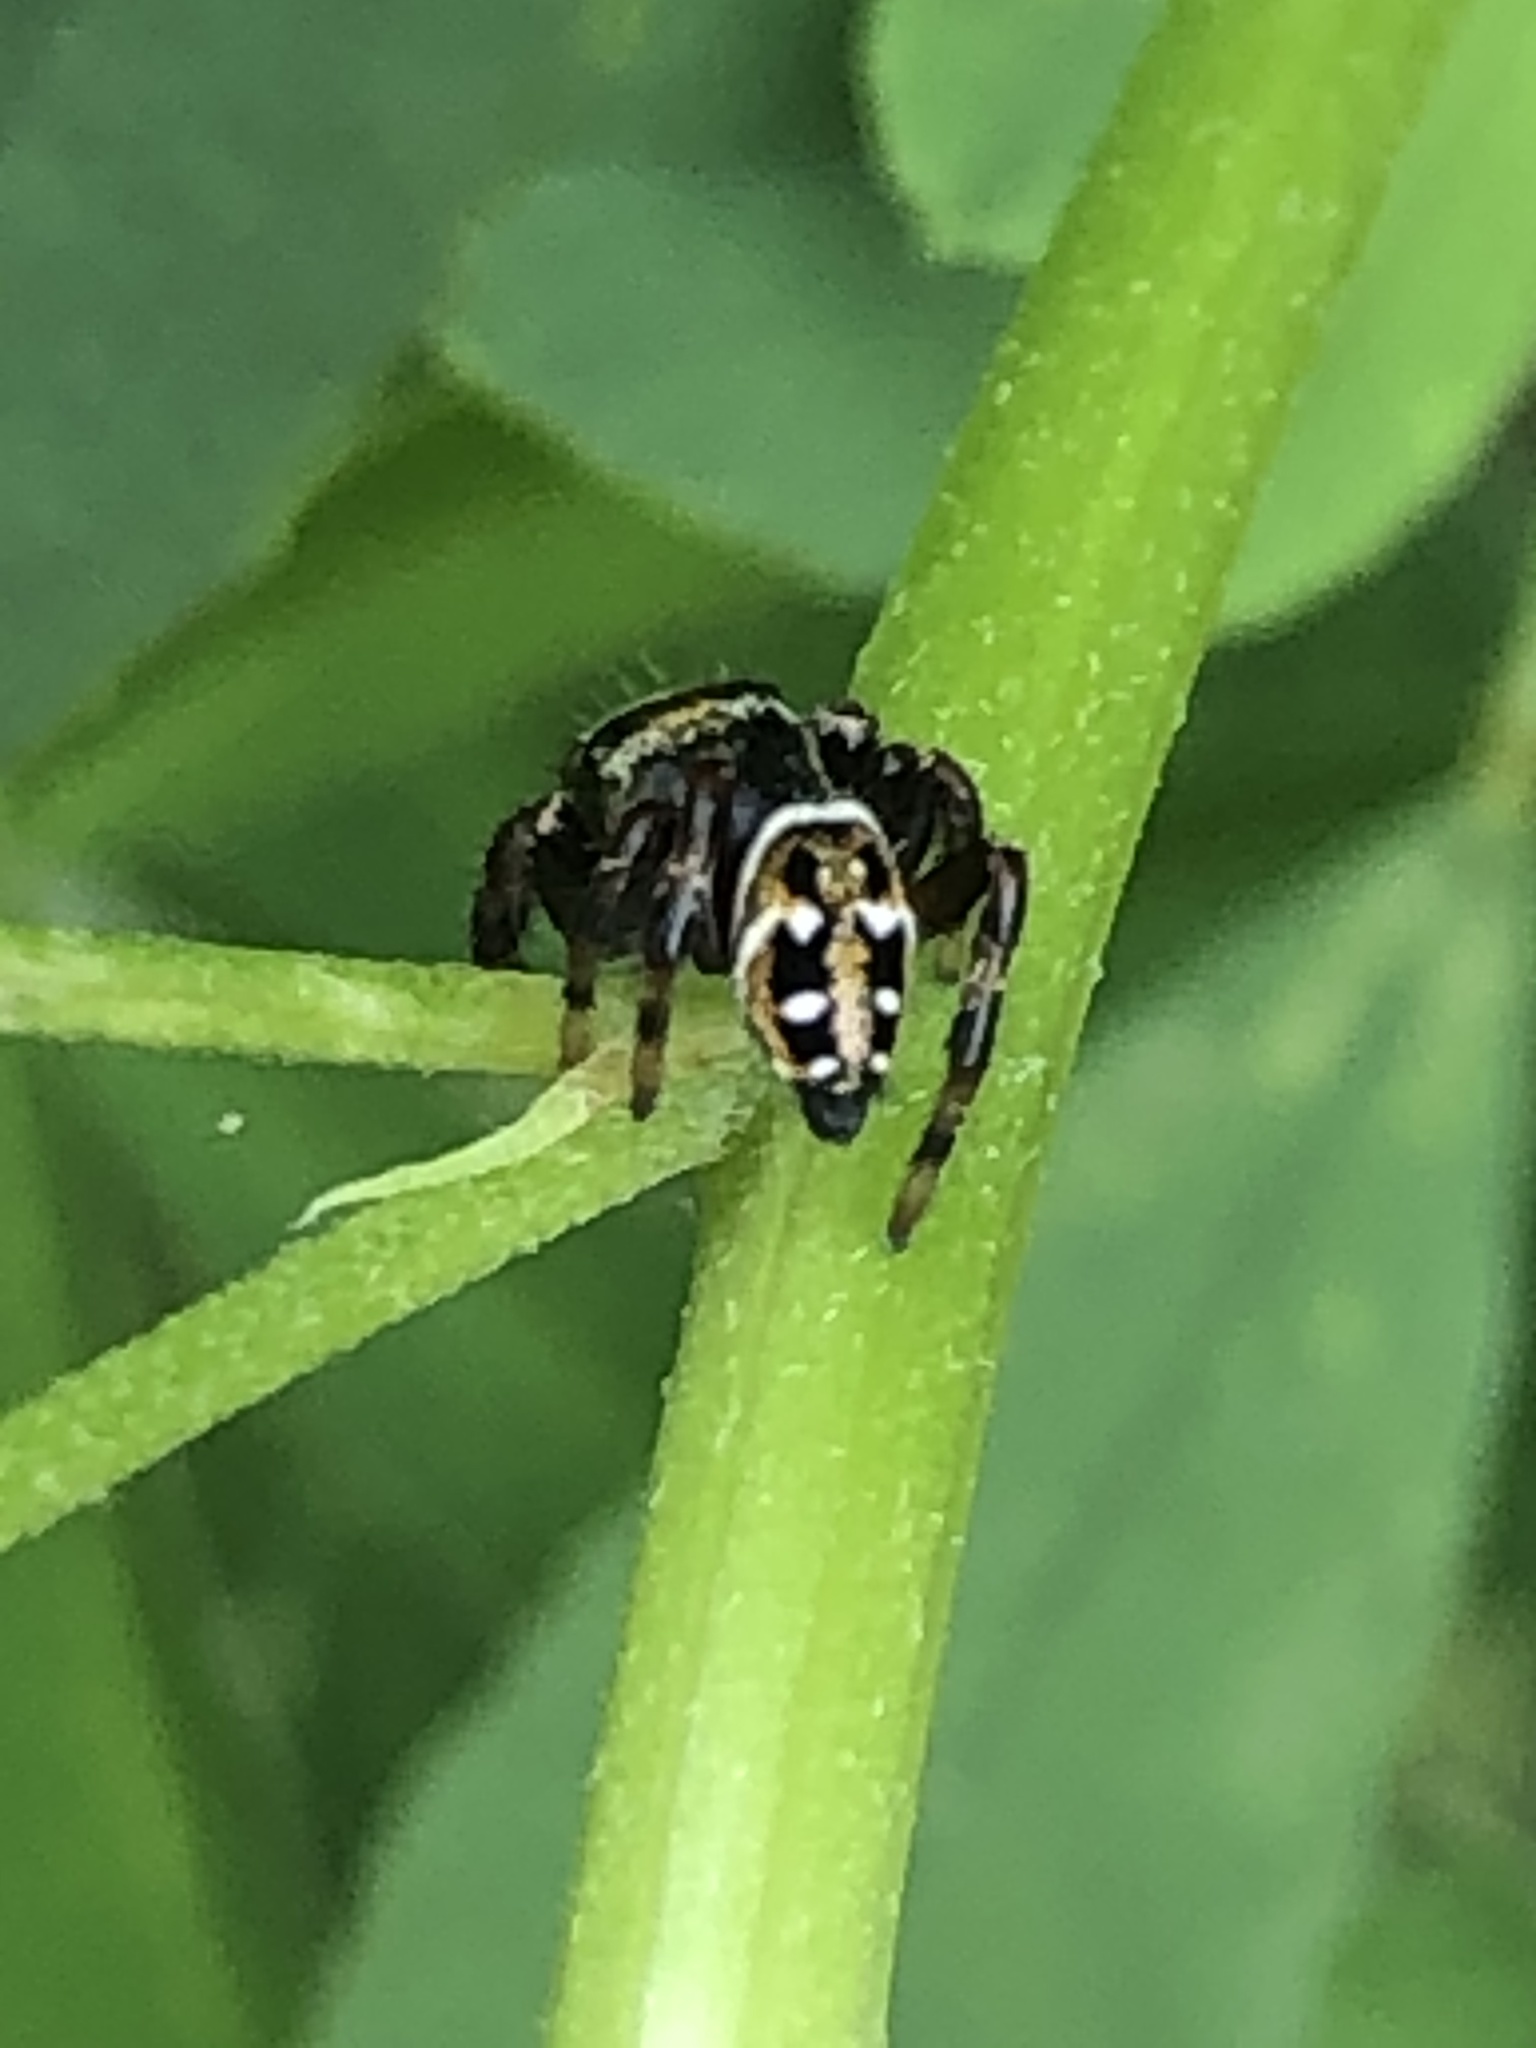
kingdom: Animalia
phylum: Arthropoda
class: Arachnida
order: Araneae
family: Salticidae
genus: Phidippus
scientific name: Phidippus clarus
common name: Brilliant jumping spider
